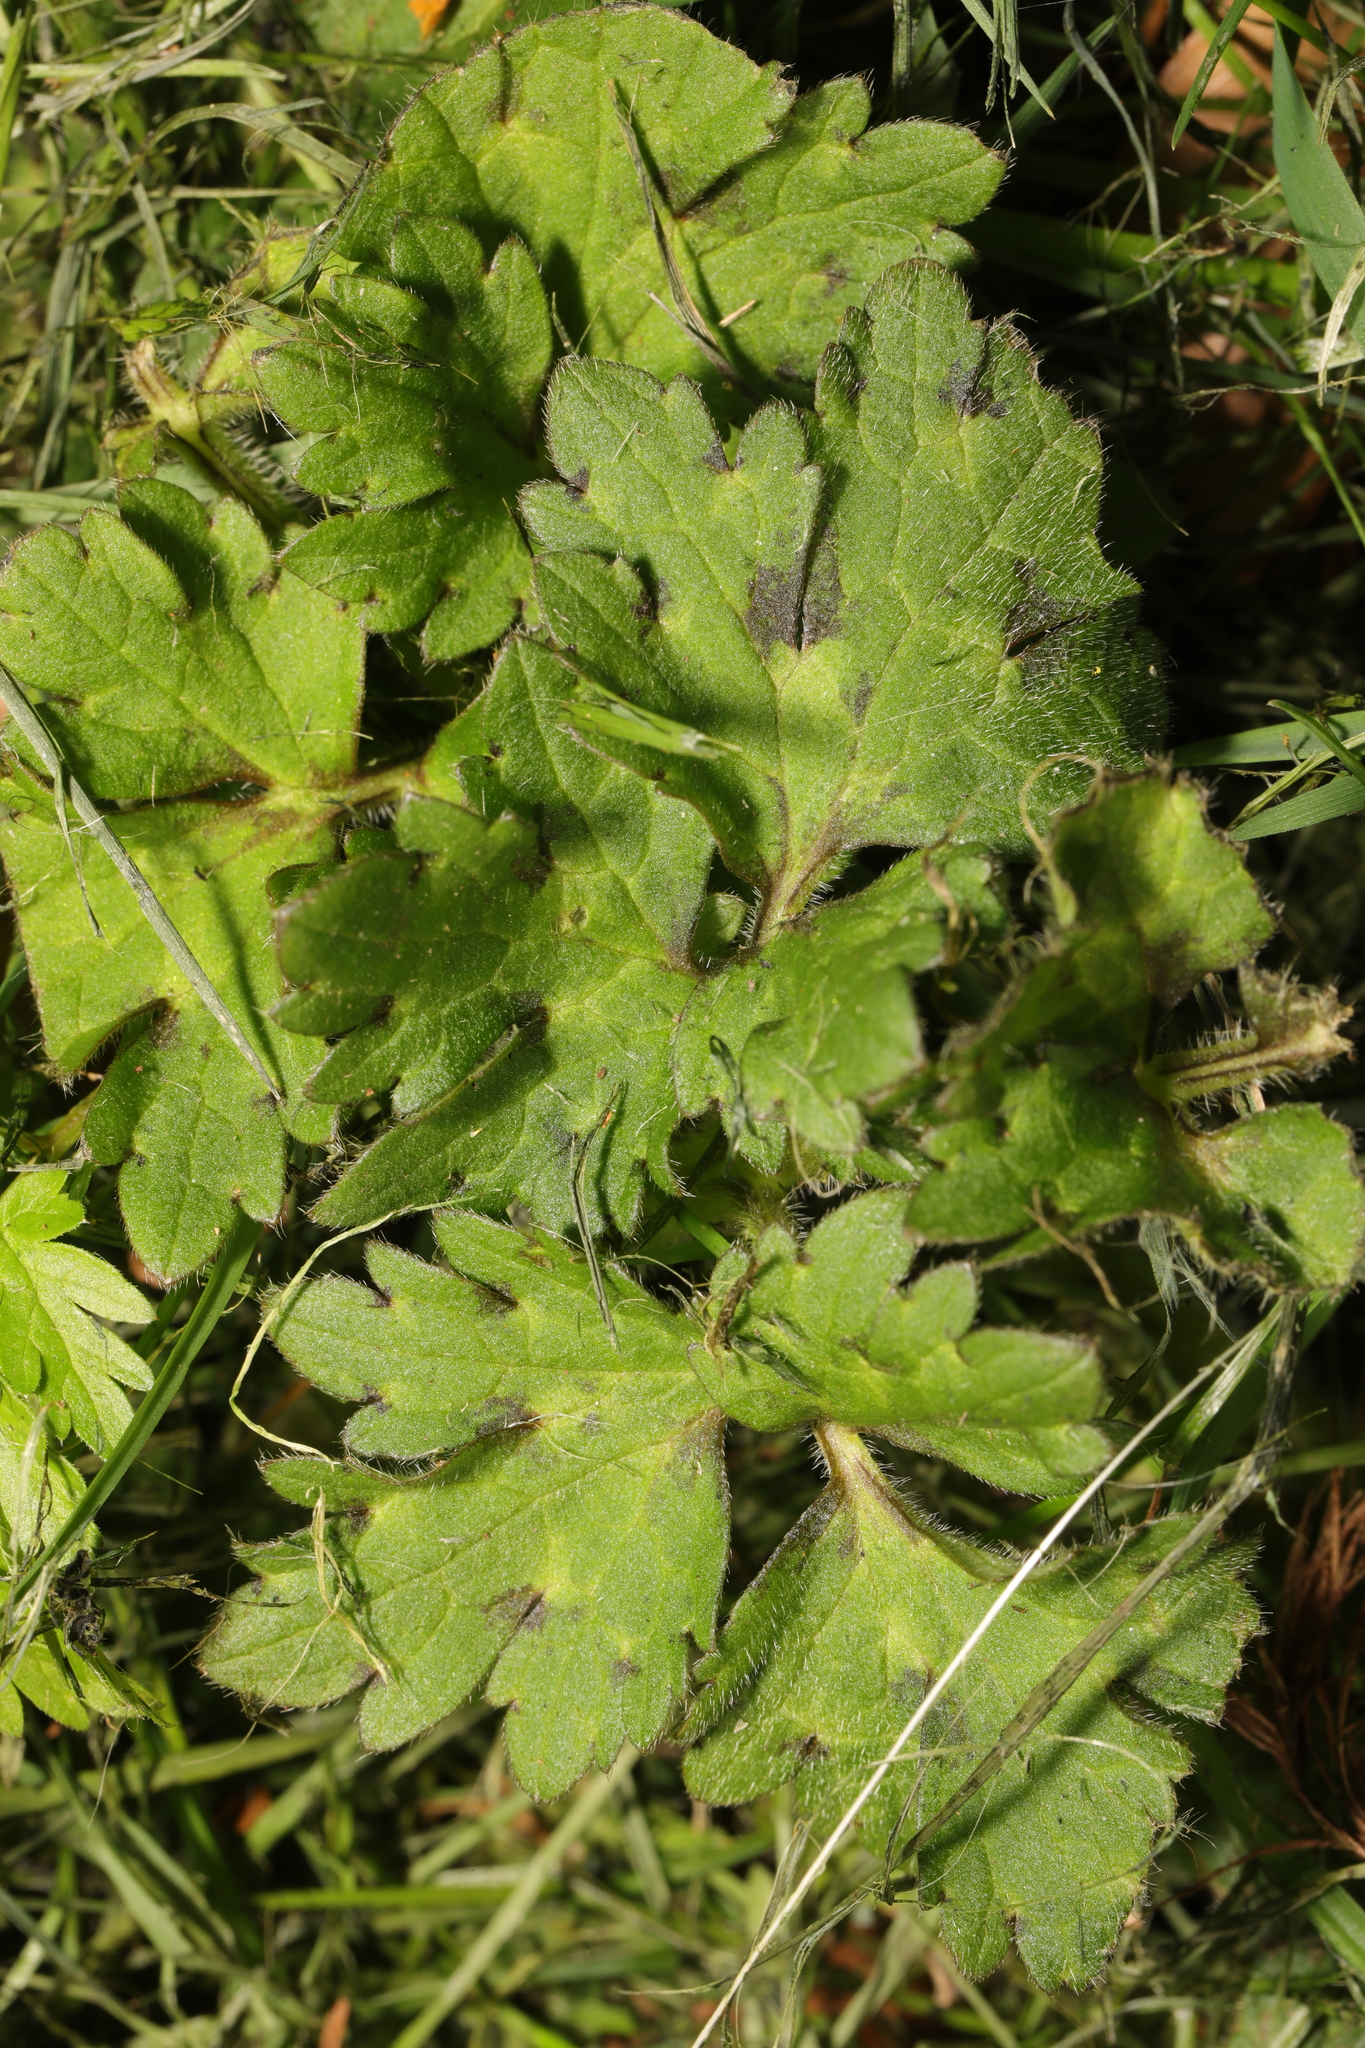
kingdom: Plantae
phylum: Tracheophyta
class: Magnoliopsida
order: Ranunculales
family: Ranunculaceae
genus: Ranunculus
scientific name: Ranunculus repens
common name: Creeping buttercup
